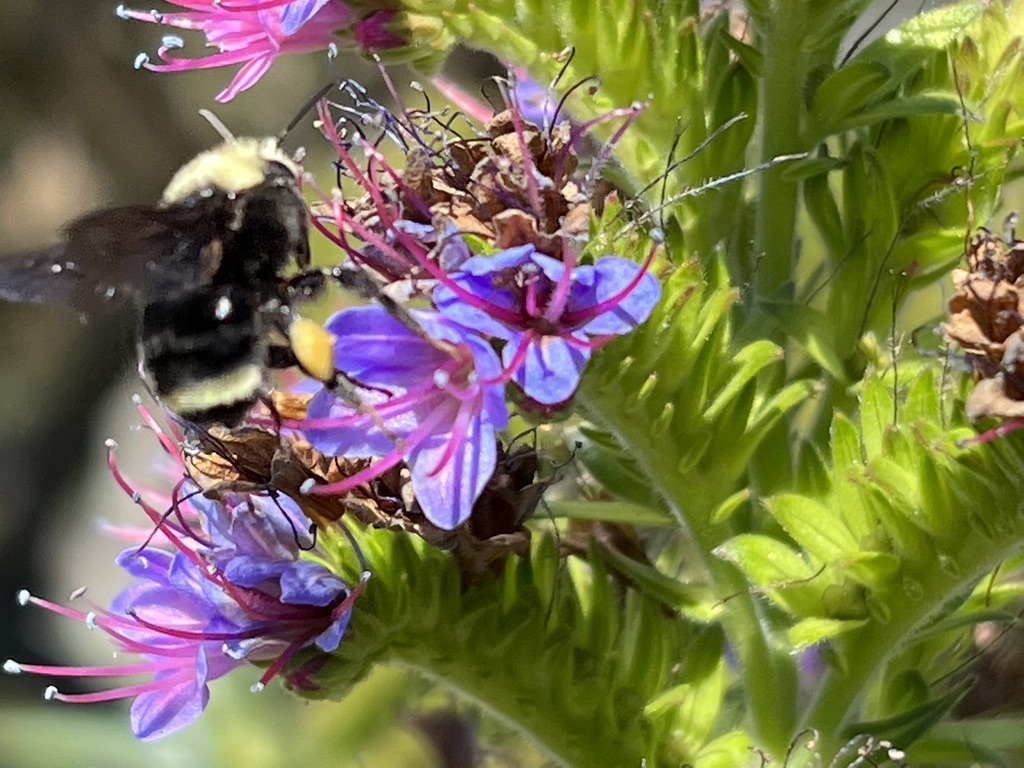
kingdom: Animalia
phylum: Arthropoda
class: Insecta
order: Hymenoptera
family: Apidae
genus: Bombus
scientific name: Bombus vosnesenskii
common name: Vosnesensky bumble bee
